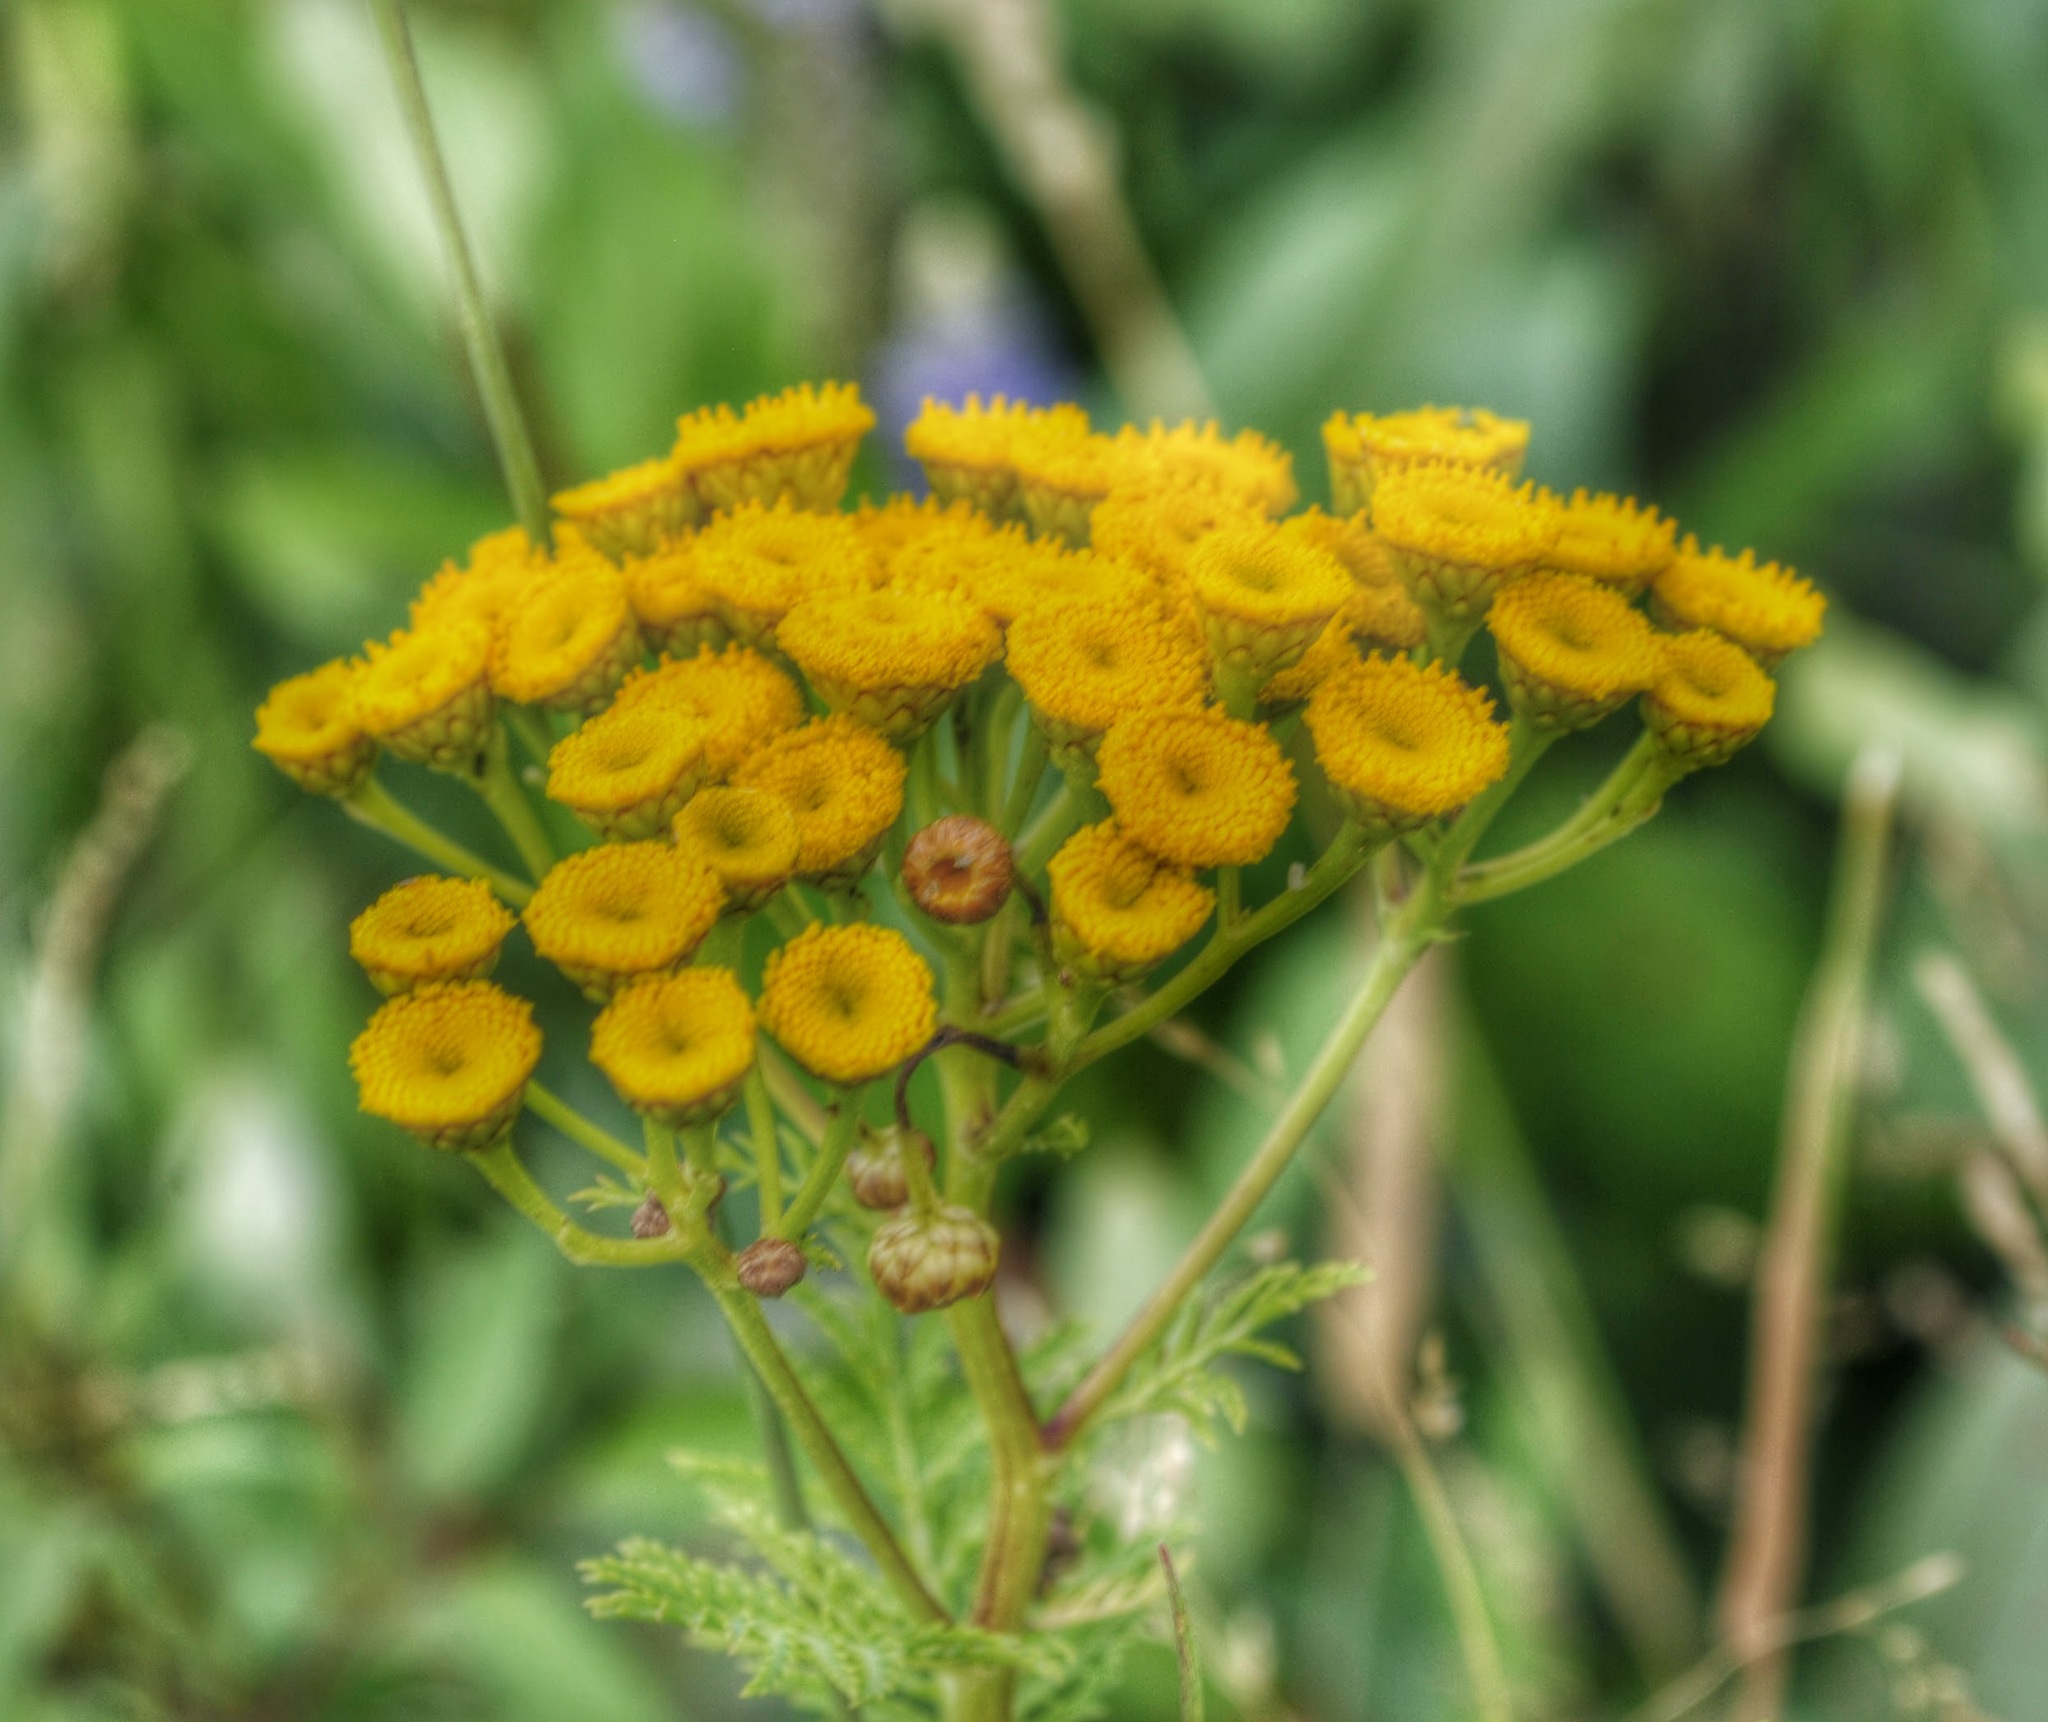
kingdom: Plantae
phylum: Tracheophyta
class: Magnoliopsida
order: Asterales
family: Asteraceae
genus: Tanacetum
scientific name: Tanacetum vulgare
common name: Common tansy
